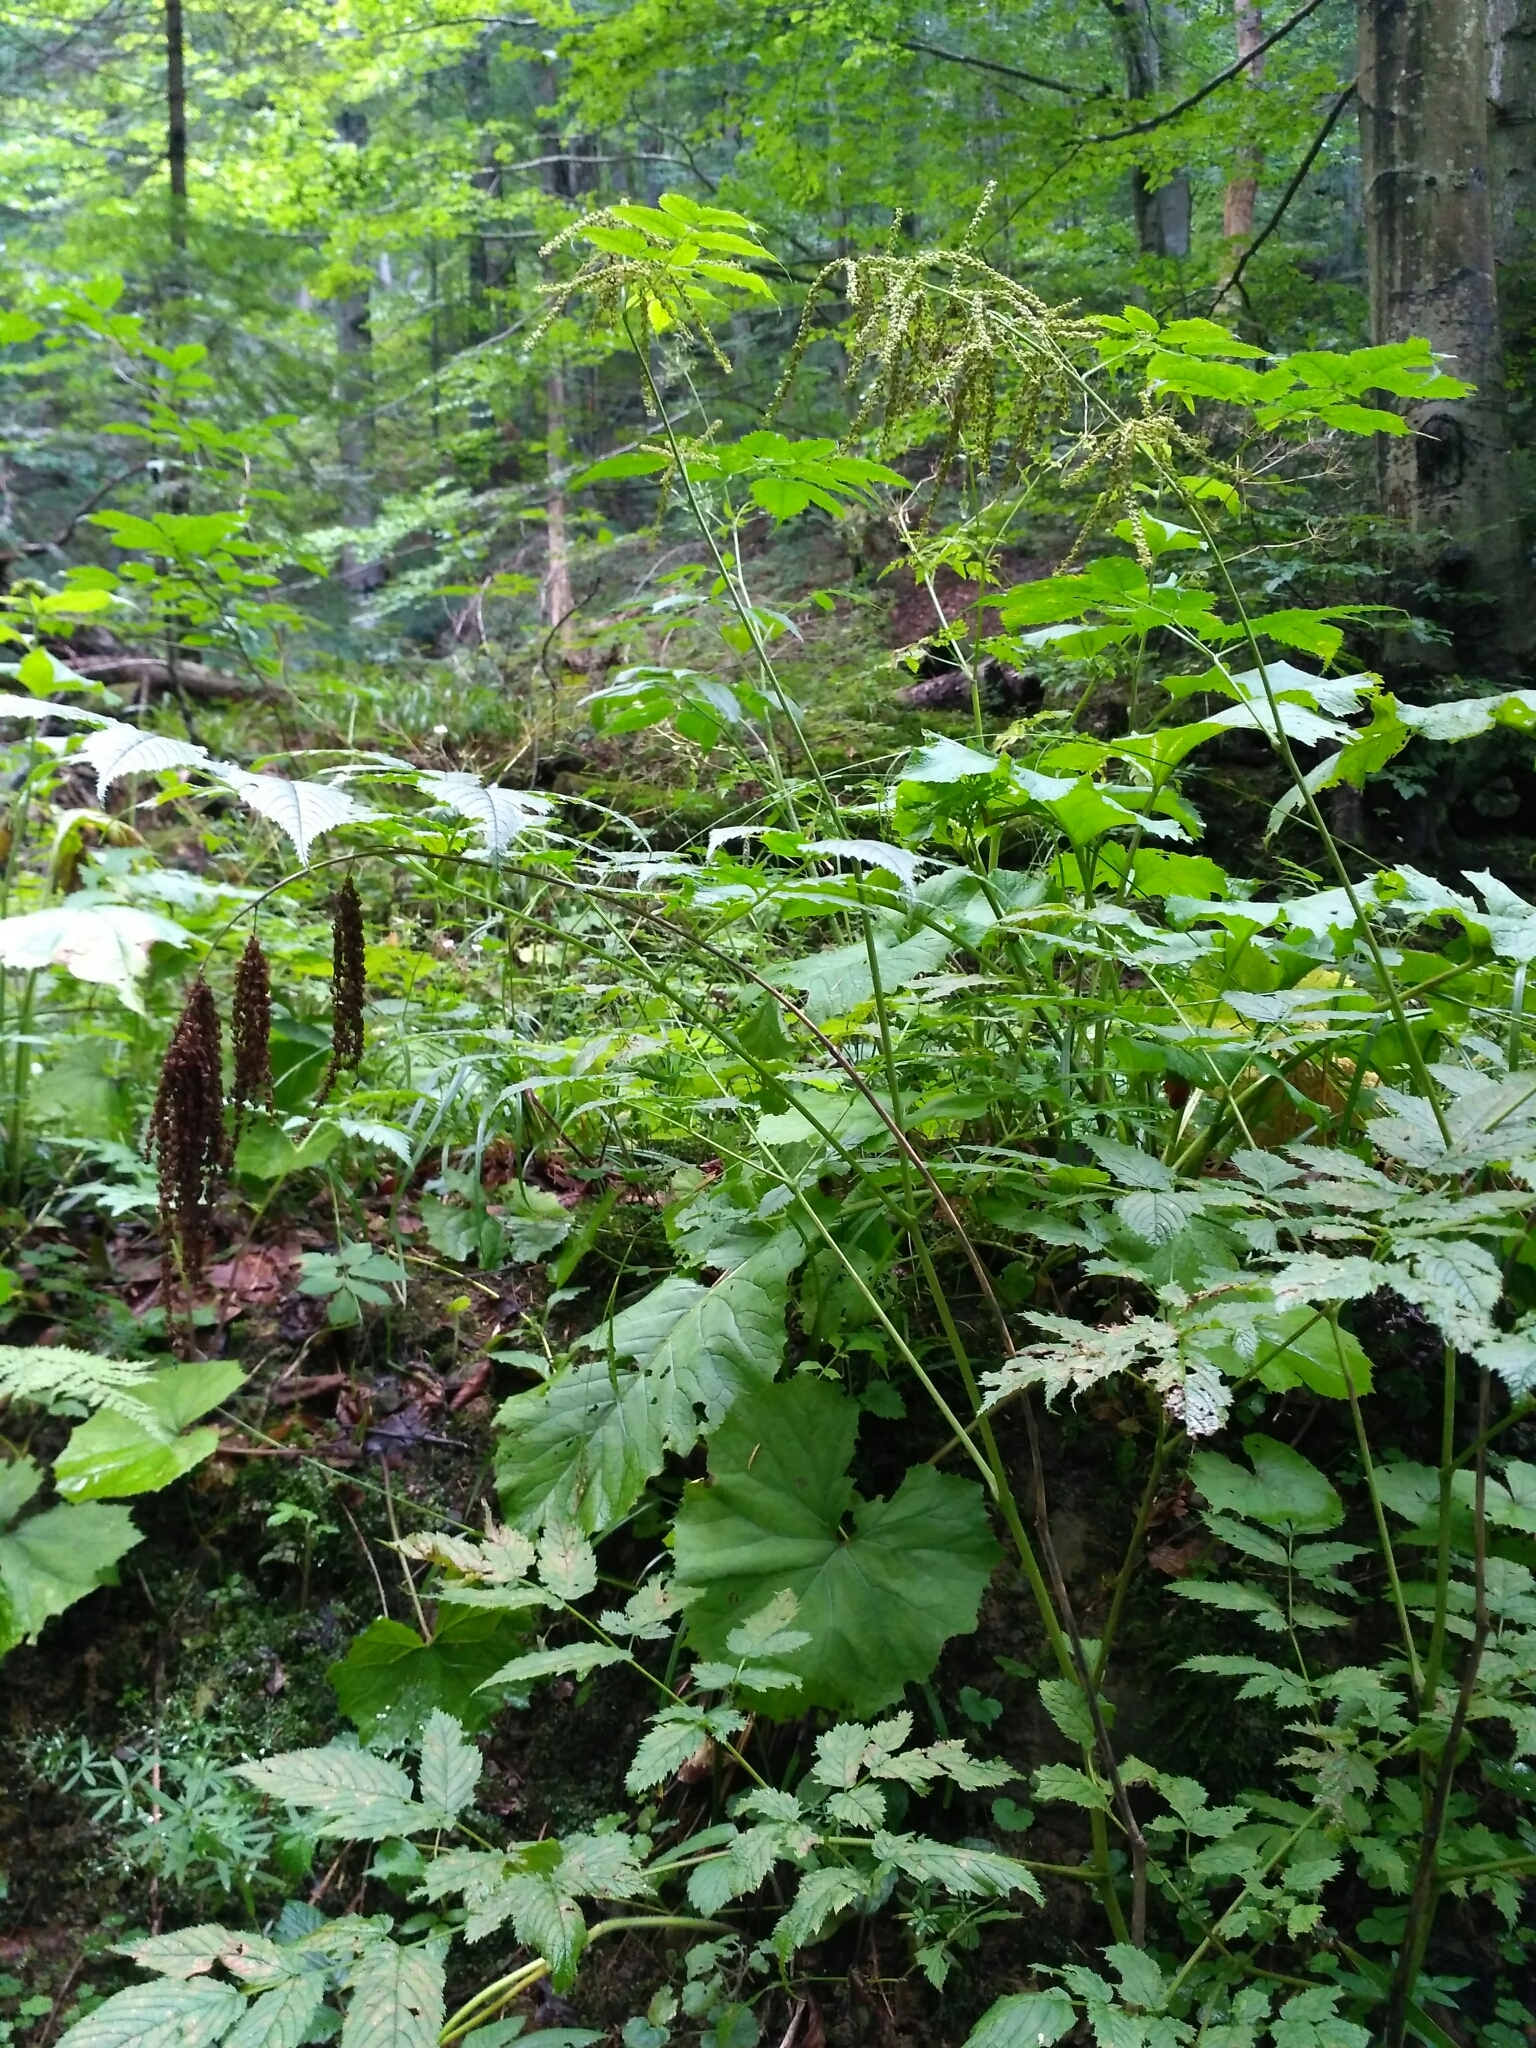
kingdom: Plantae
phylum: Tracheophyta
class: Magnoliopsida
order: Rosales
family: Rosaceae
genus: Aruncus
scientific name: Aruncus dioicus
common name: Buck's-beard
